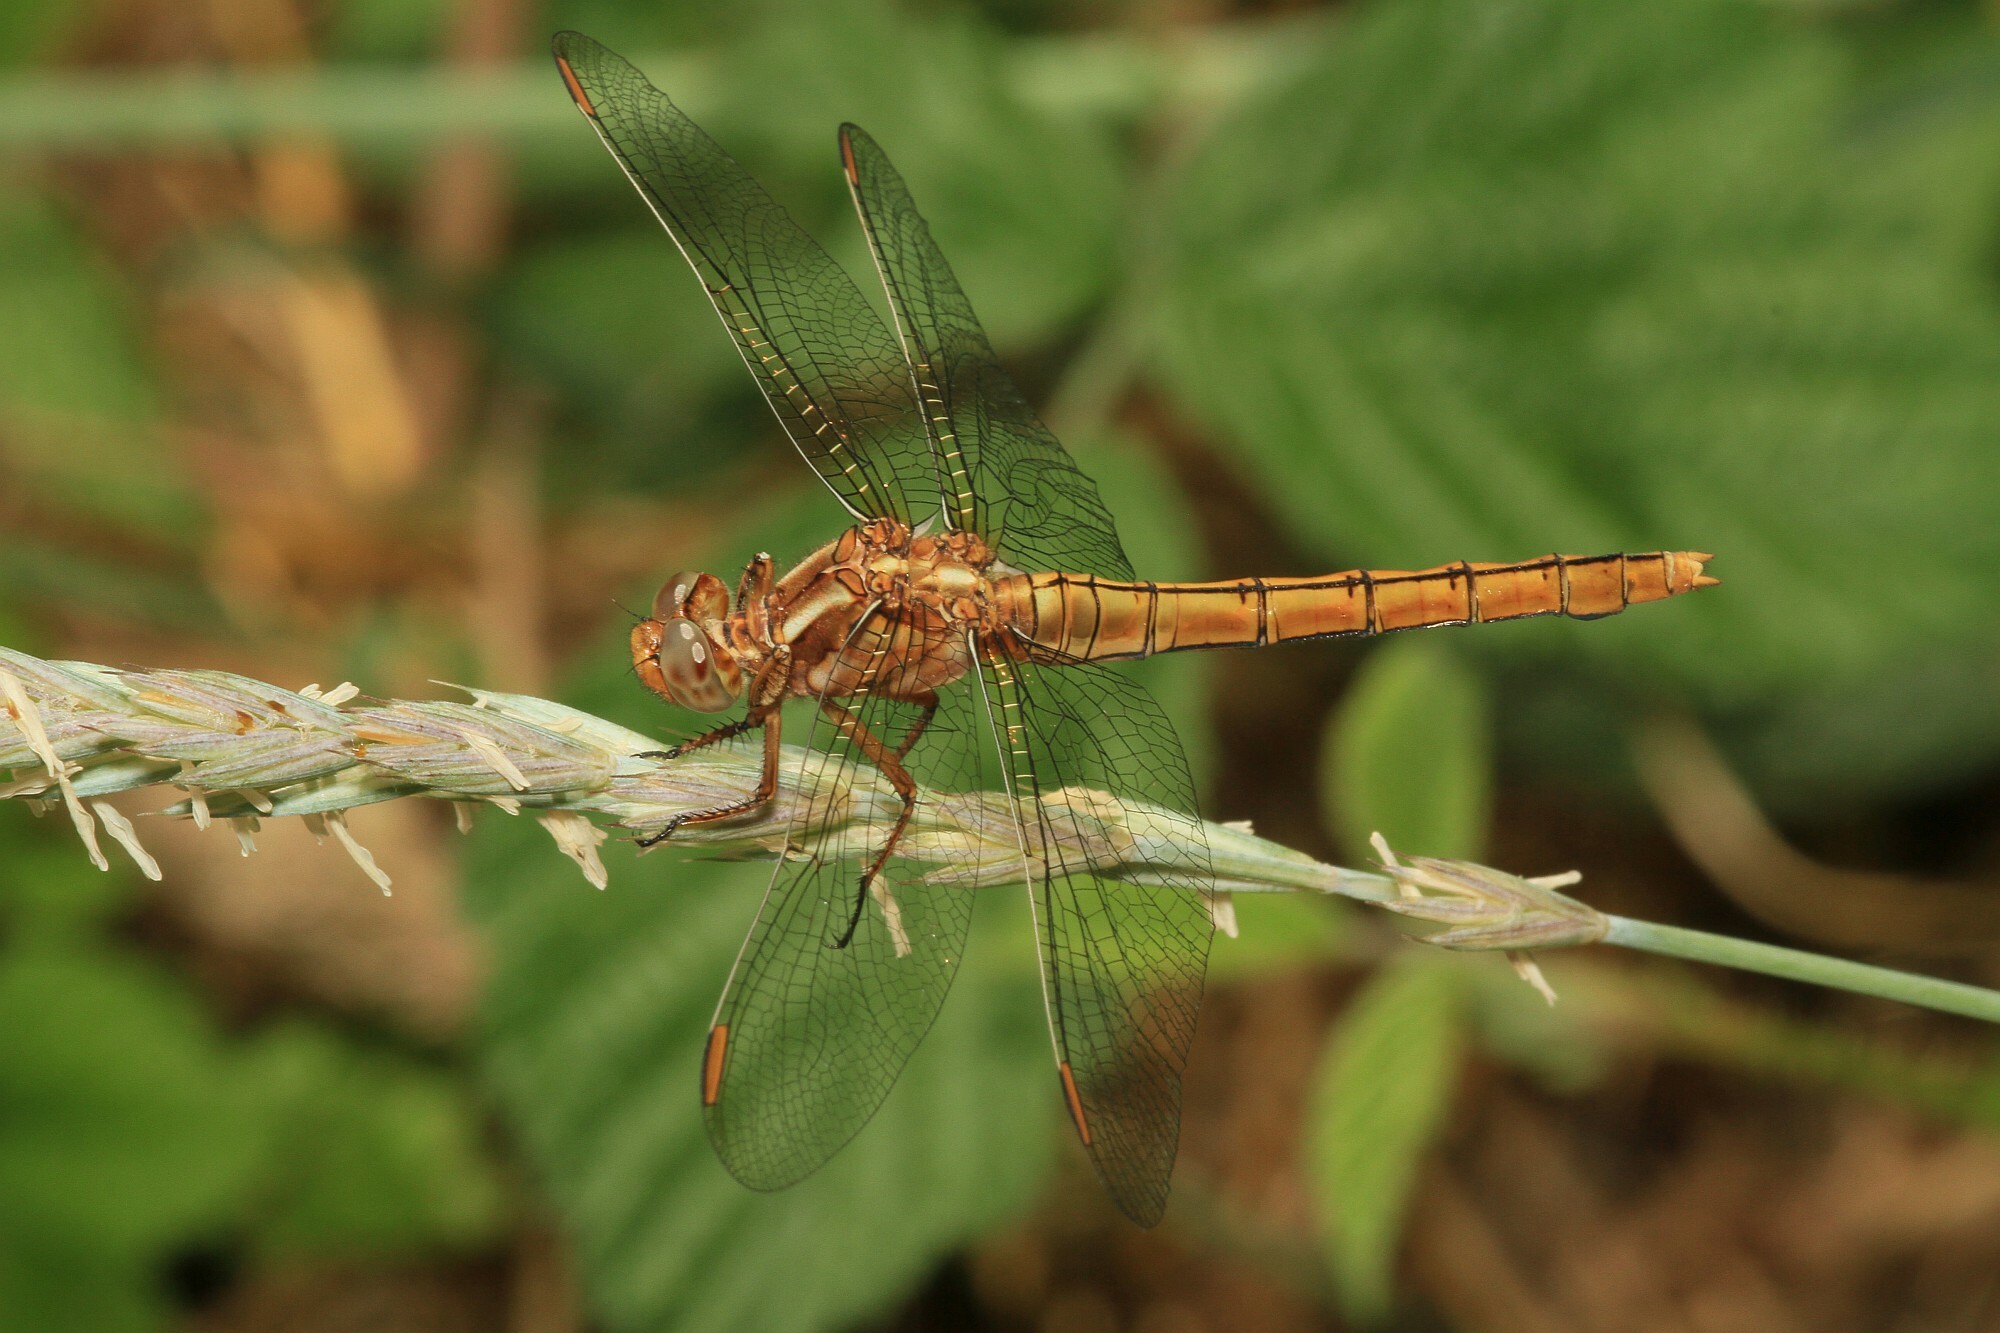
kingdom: Animalia
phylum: Arthropoda
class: Insecta
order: Odonata
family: Libellulidae
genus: Orthetrum
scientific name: Orthetrum coerulescens
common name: Keeled skimmer
